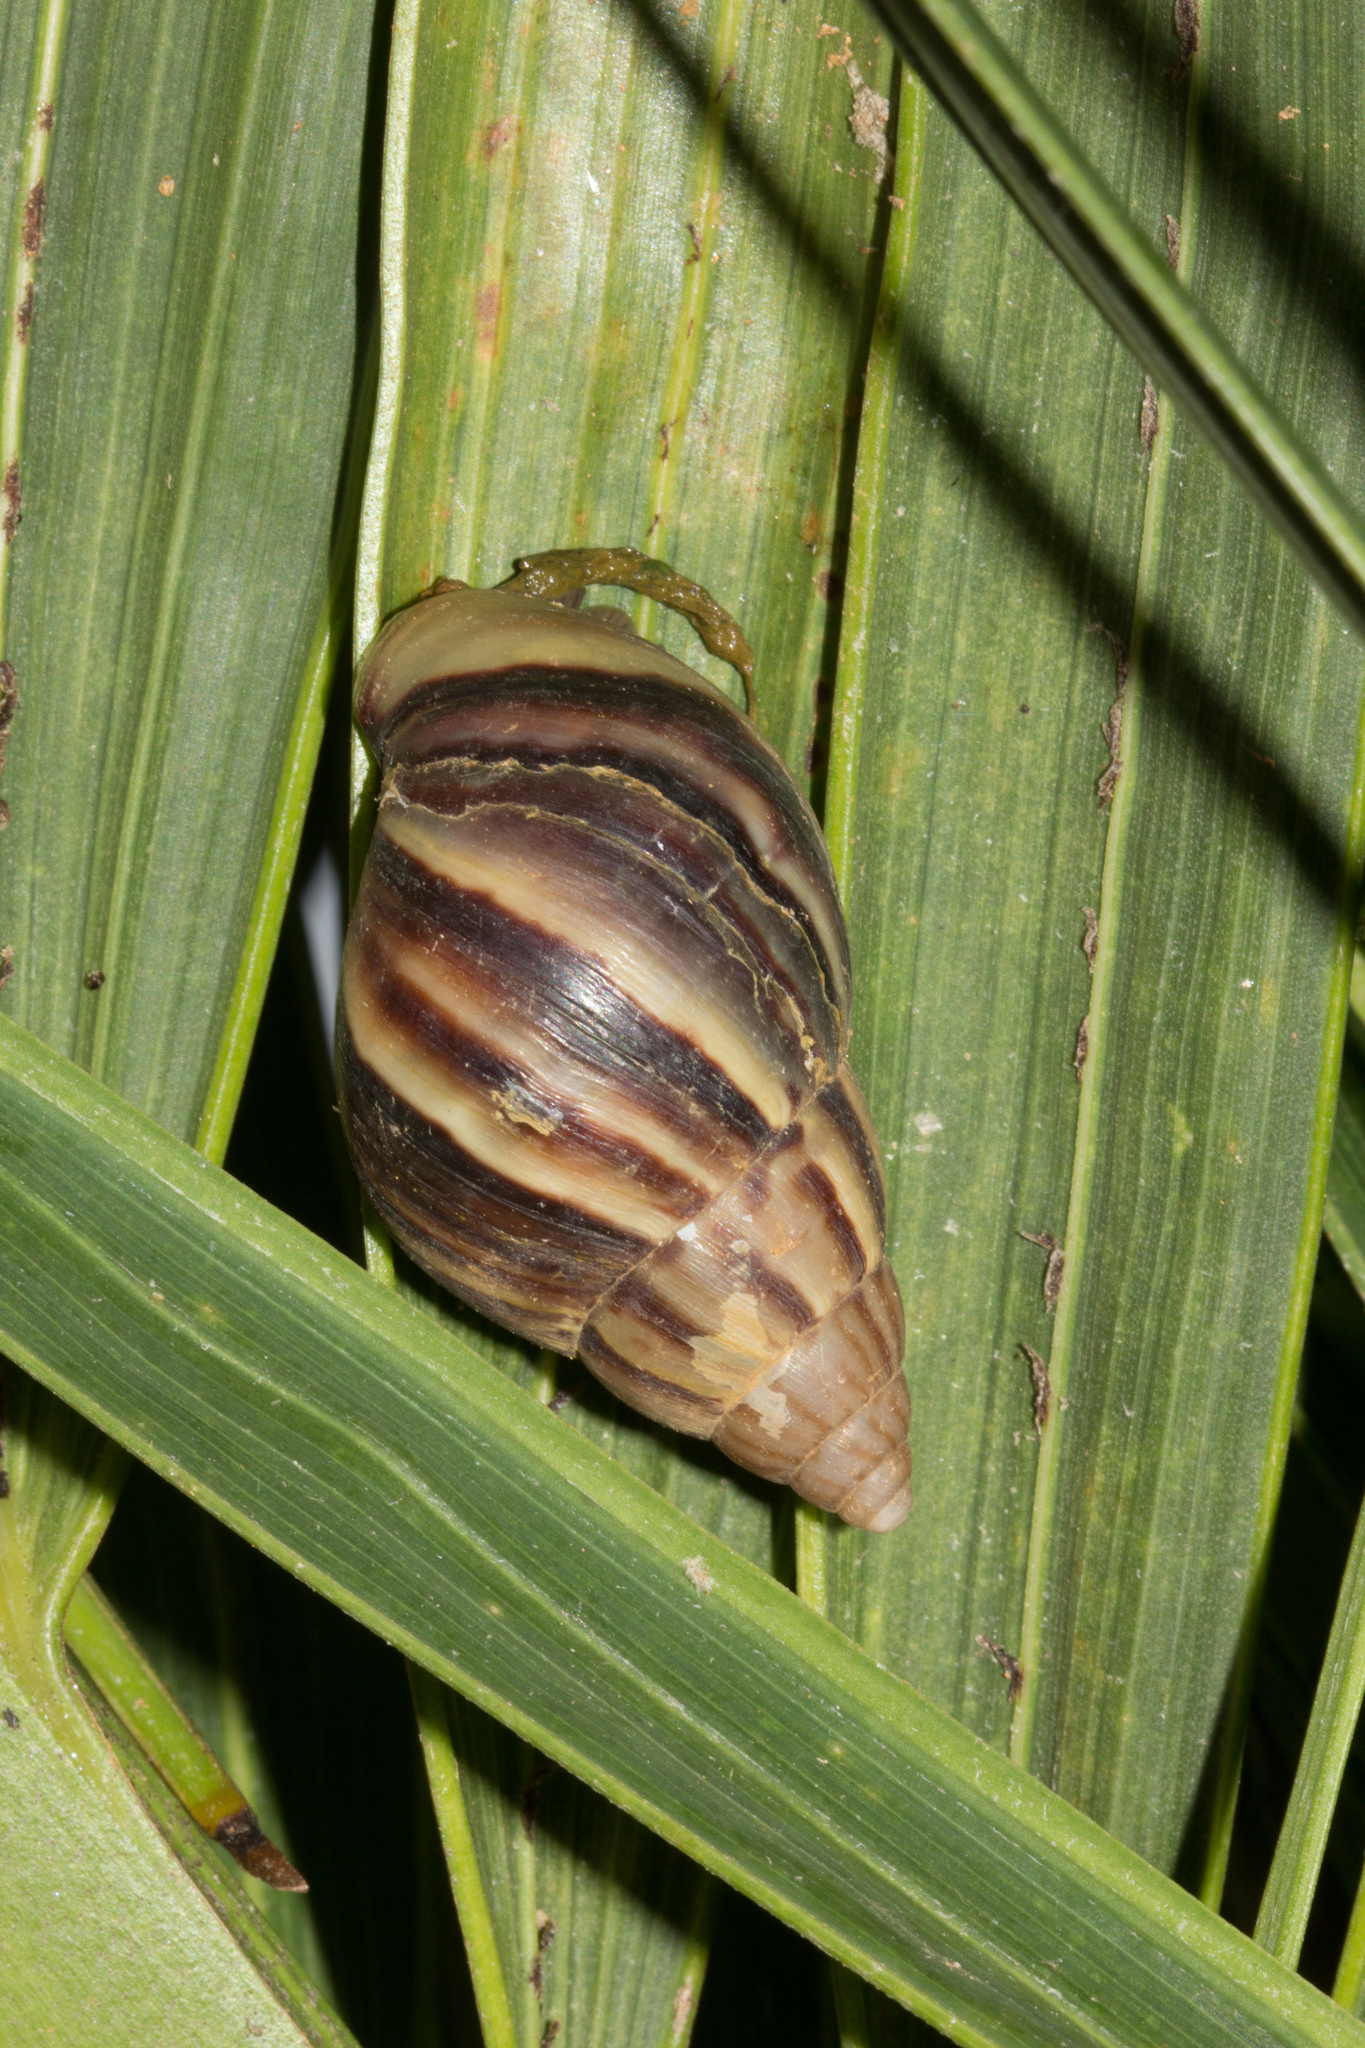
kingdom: Animalia
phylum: Mollusca
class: Gastropoda
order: Stylommatophora
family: Achatinidae
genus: Lissachatina
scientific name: Lissachatina fulica
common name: Giant african snail
